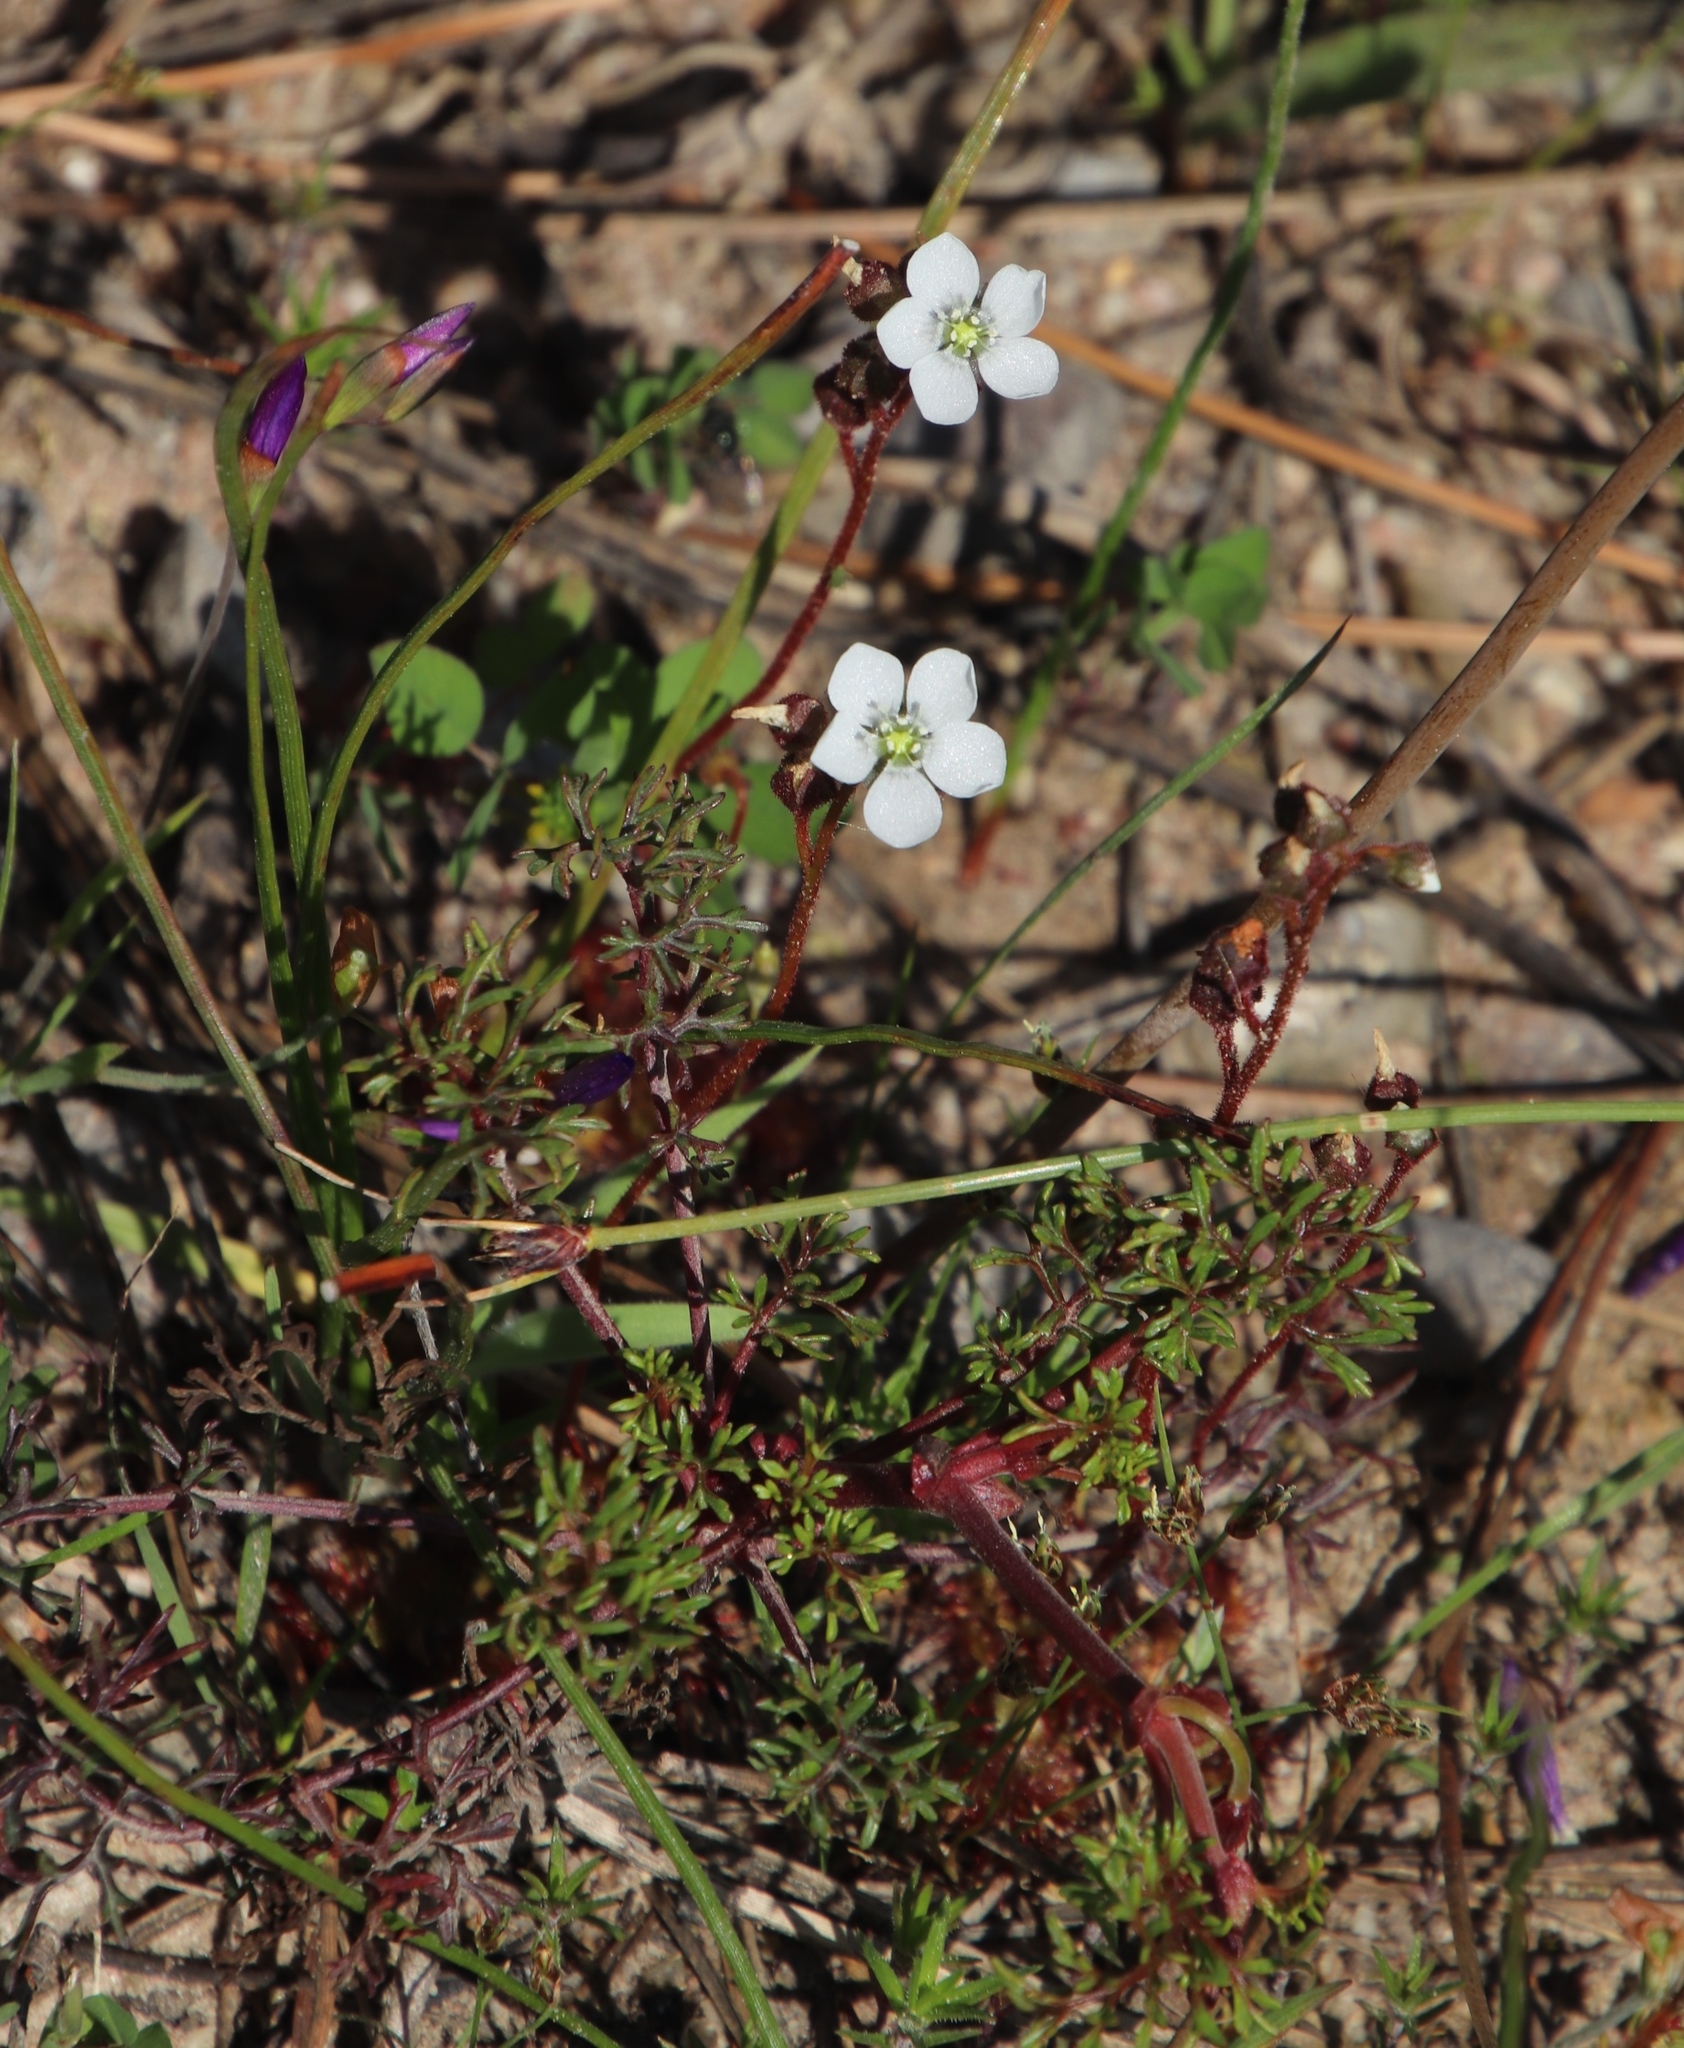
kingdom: Plantae
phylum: Tracheophyta
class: Magnoliopsida
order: Caryophyllales
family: Droseraceae
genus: Drosera
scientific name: Drosera trinervia
